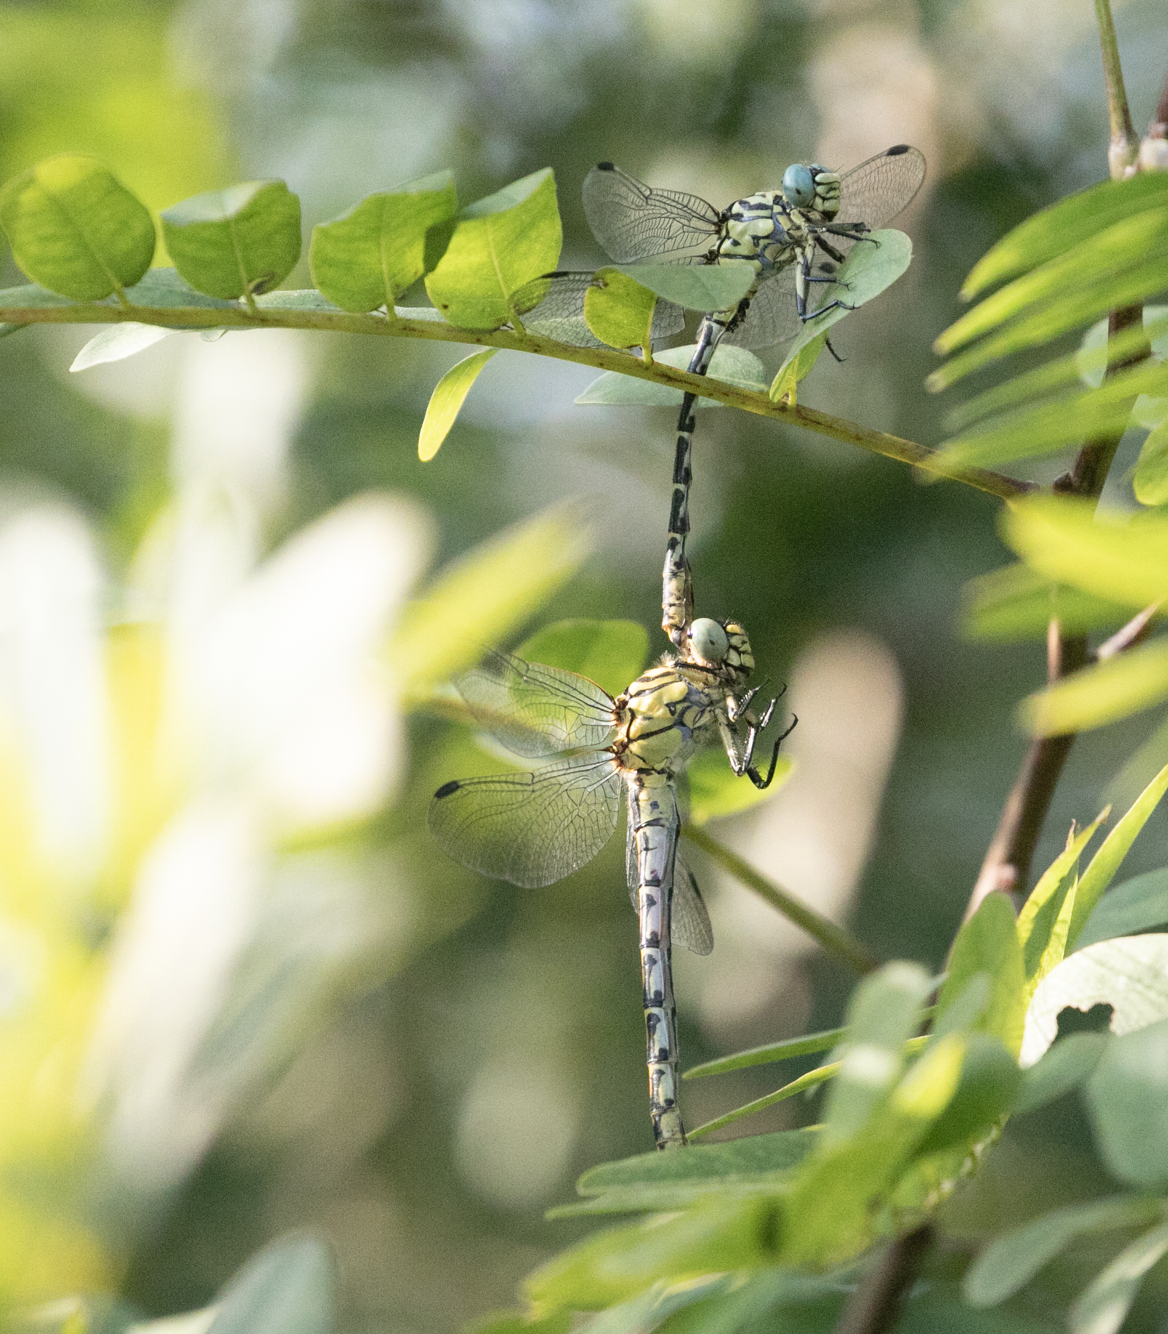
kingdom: Animalia
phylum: Arthropoda
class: Insecta
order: Odonata
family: Gomphidae
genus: Onychogomphus
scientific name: Onychogomphus forcipatus
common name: Small pincertail
